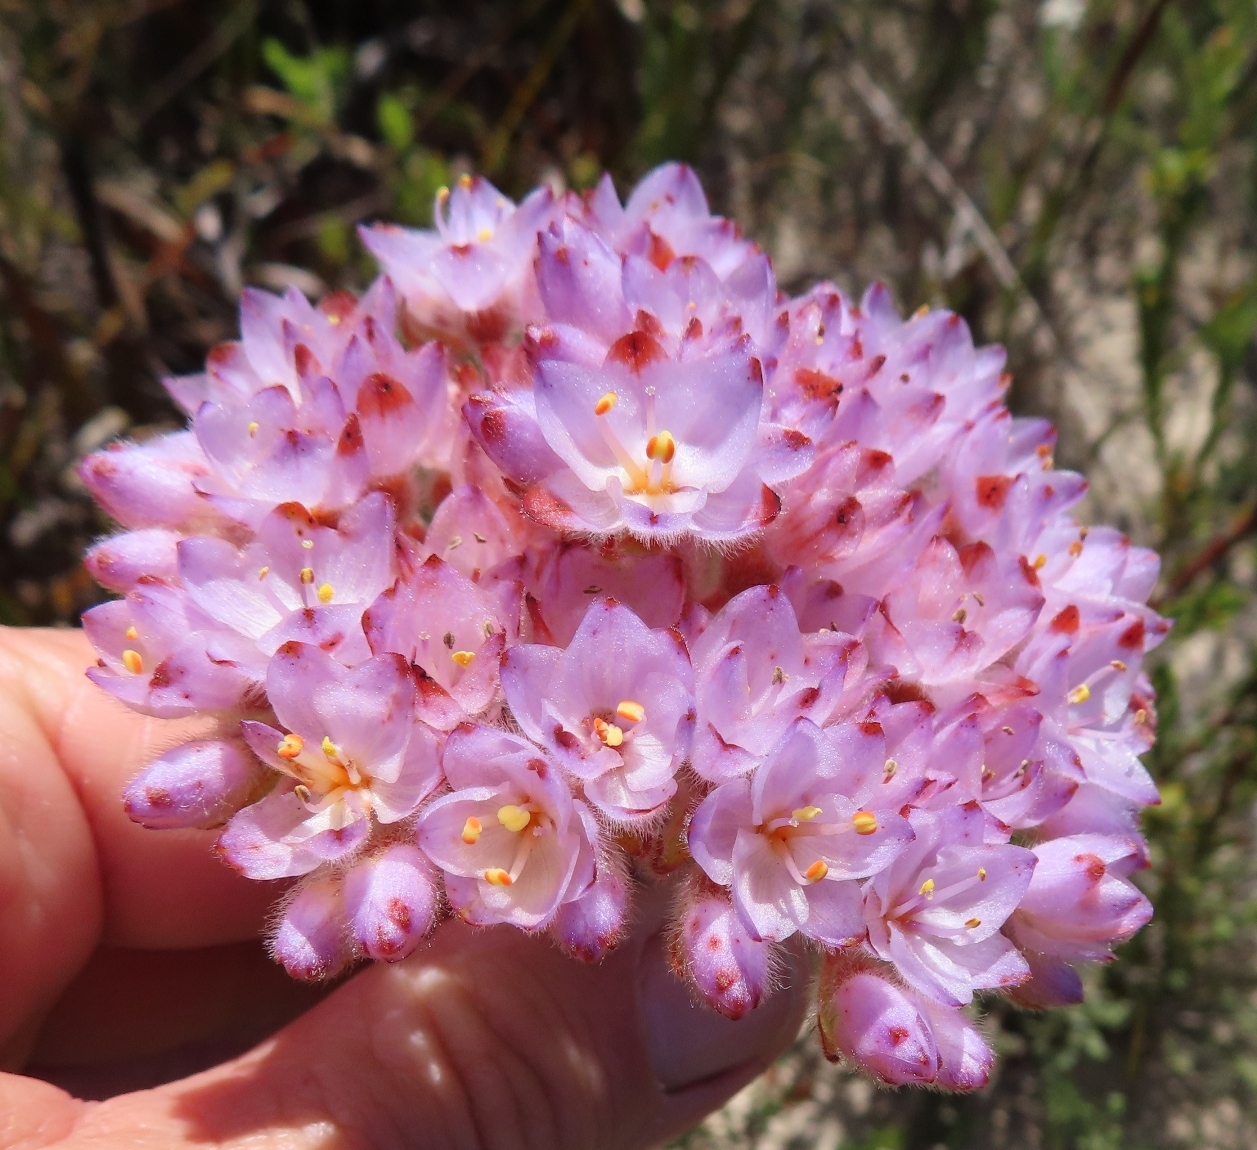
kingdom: Plantae
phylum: Tracheophyta
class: Liliopsida
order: Commelinales
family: Haemodoraceae
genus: Dilatris
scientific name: Dilatris pillansii
